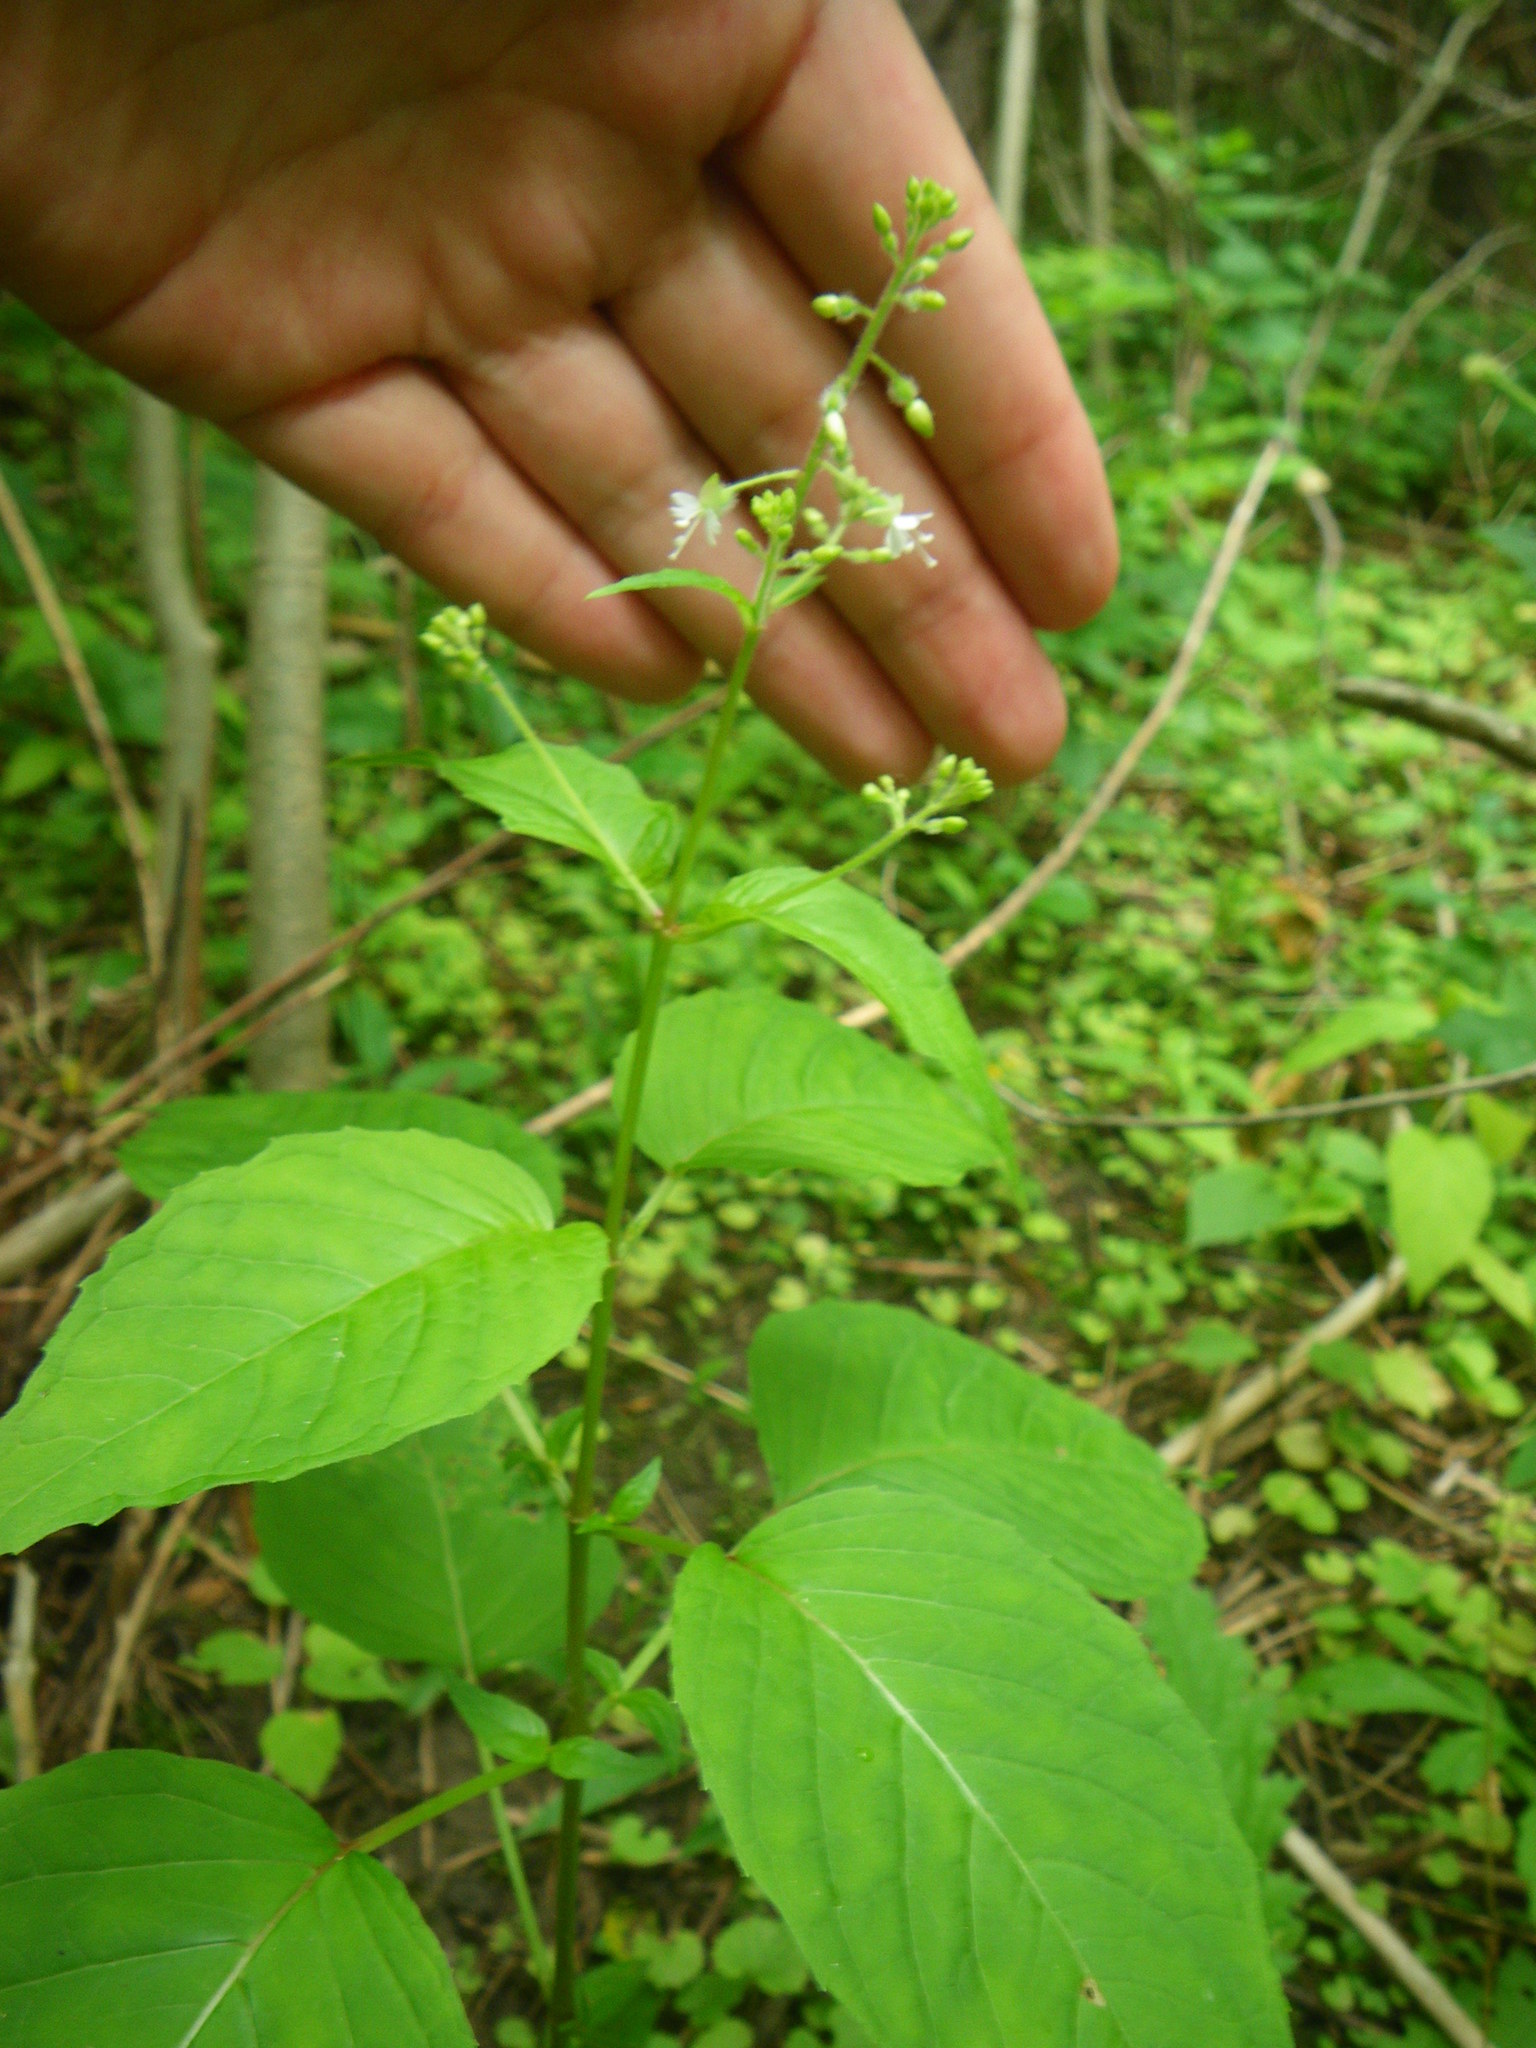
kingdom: Plantae
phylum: Tracheophyta
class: Magnoliopsida
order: Myrtales
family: Onagraceae
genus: Circaea
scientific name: Circaea canadensis
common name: Broad-leaved enchanter's nightshade
